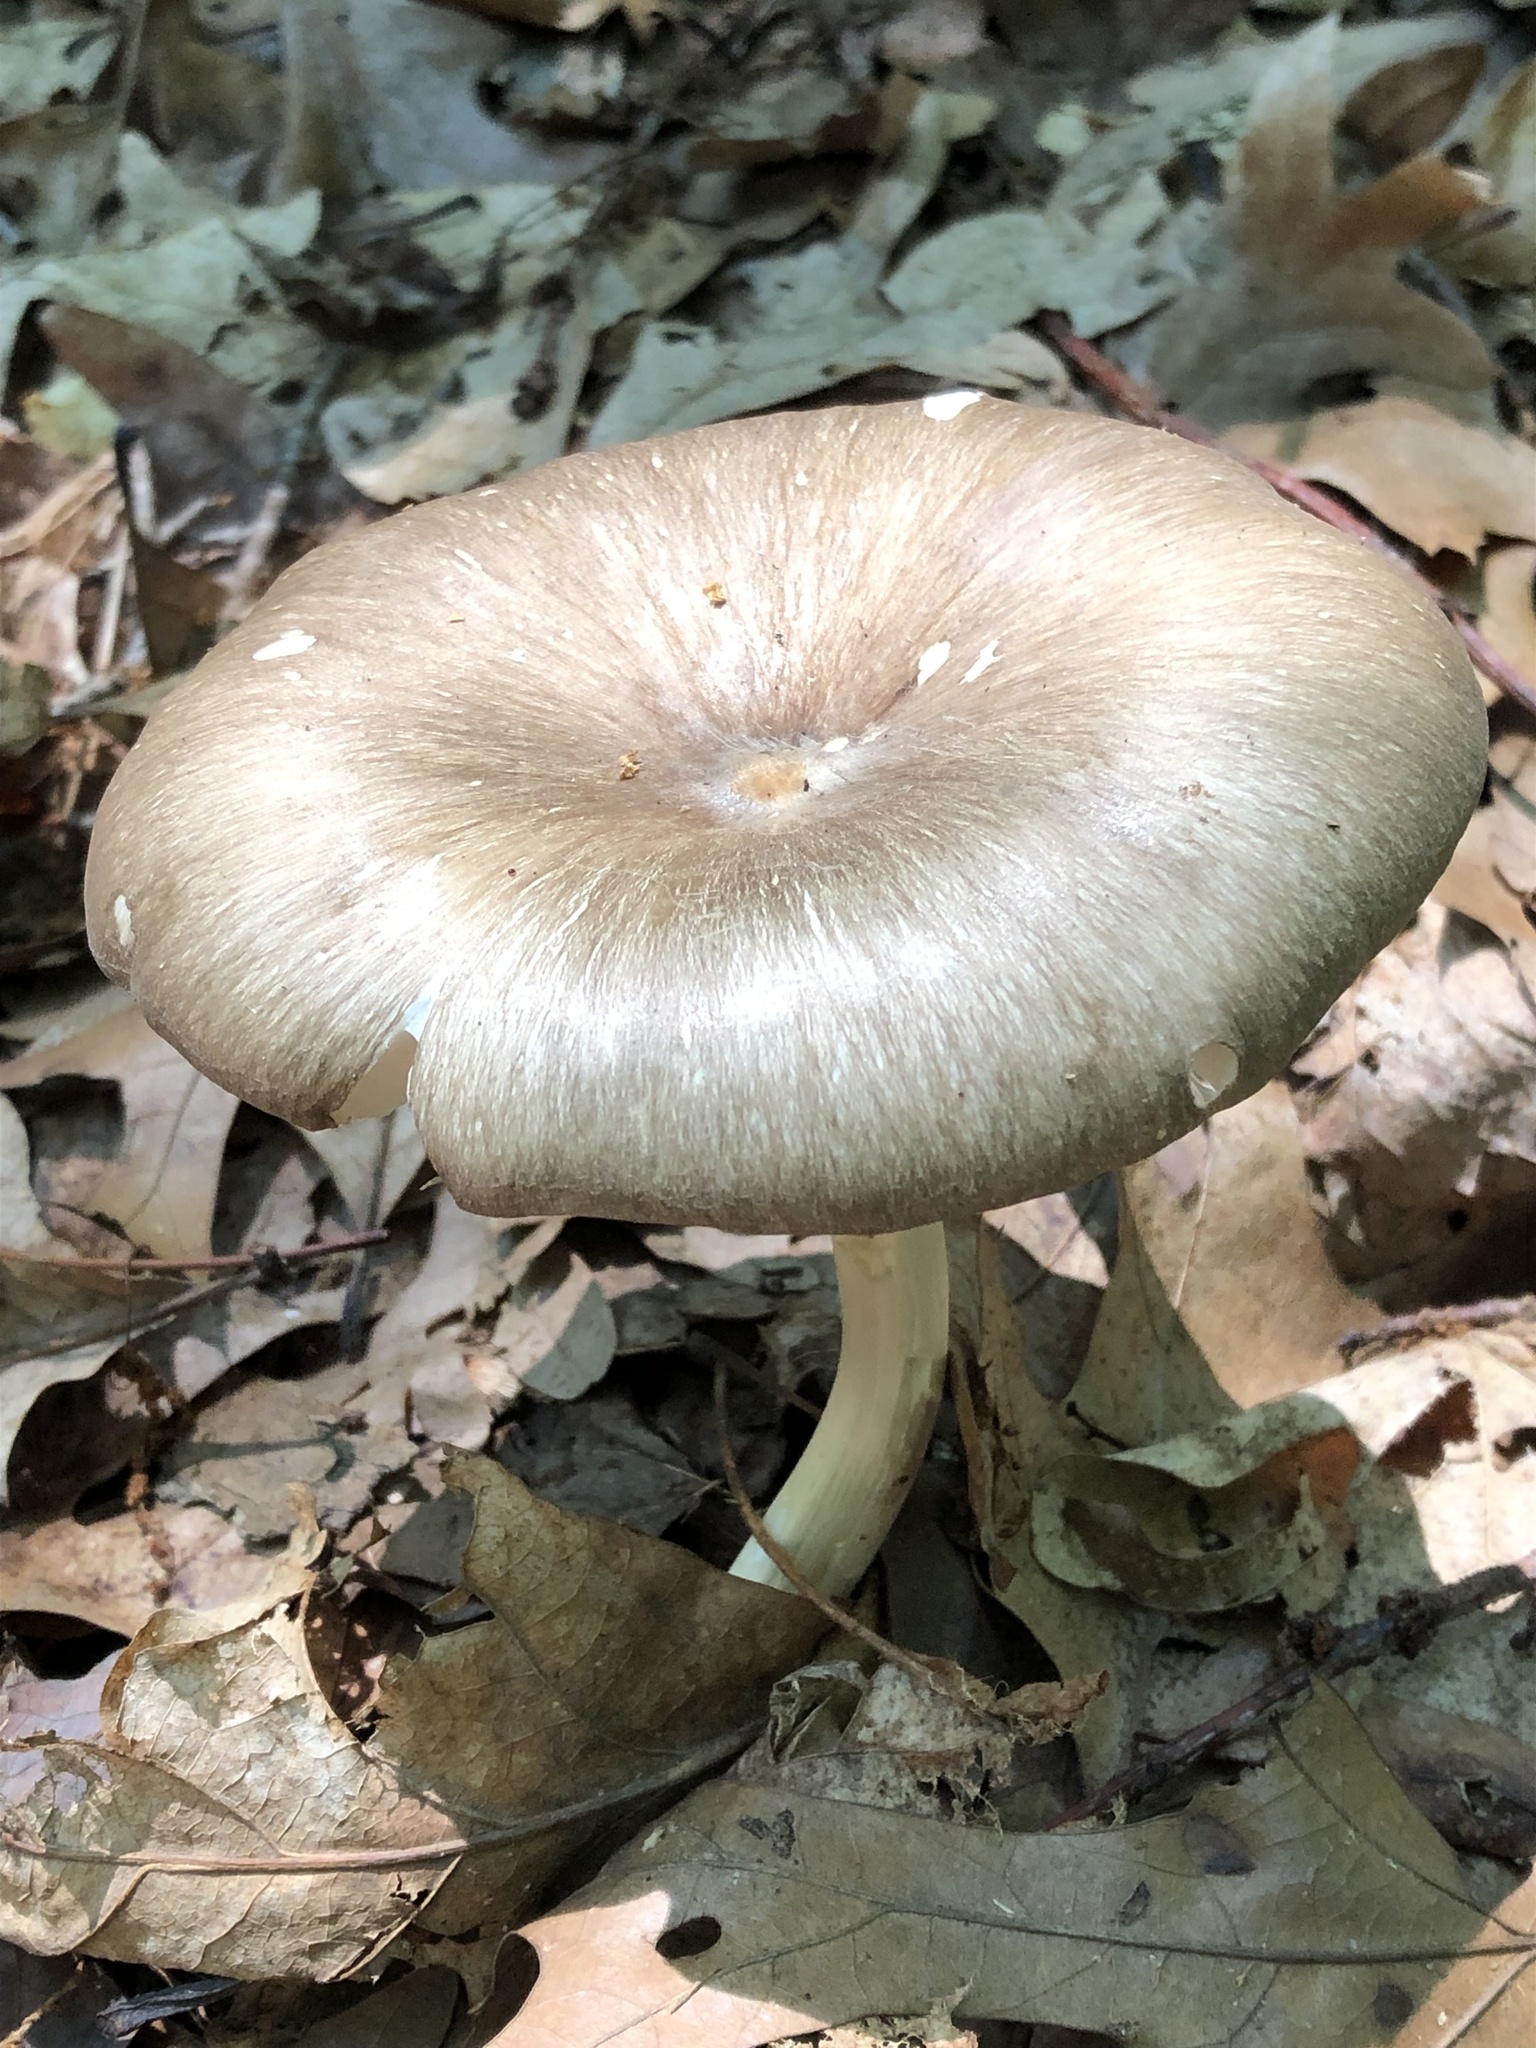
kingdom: Fungi
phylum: Basidiomycota
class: Agaricomycetes
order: Agaricales
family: Tricholomataceae
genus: Megacollybia
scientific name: Megacollybia rodmanii
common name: Eastern american platterful mushroom
